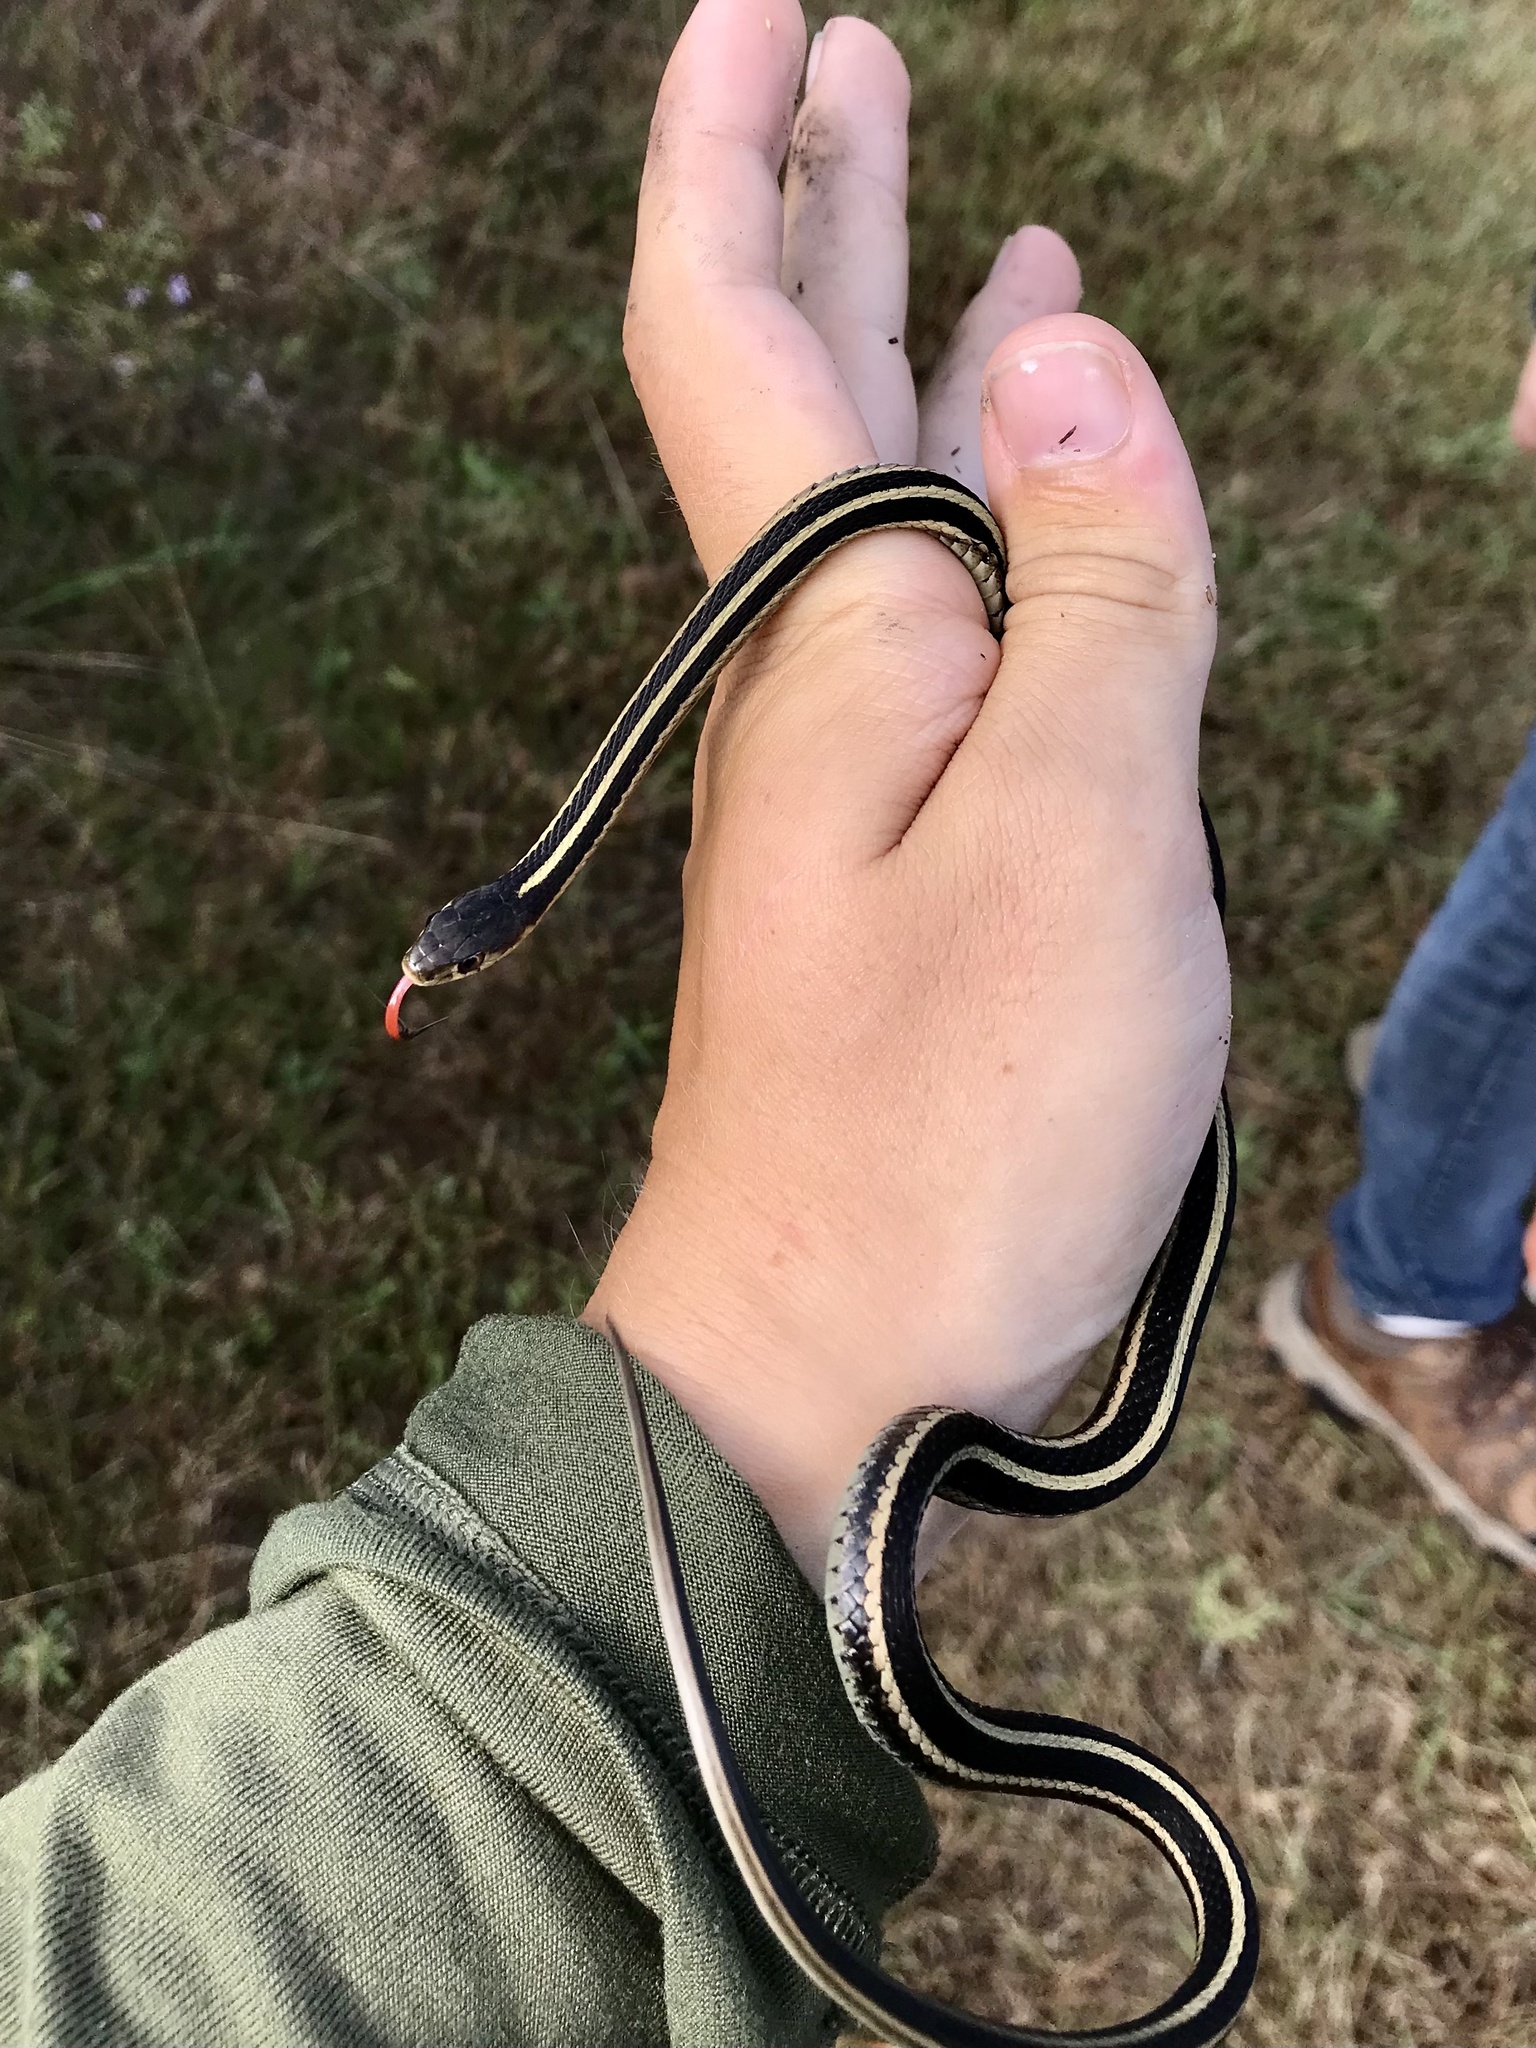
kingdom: Animalia
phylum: Chordata
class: Squamata
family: Colubridae
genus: Thamnophis
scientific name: Thamnophis sirtalis
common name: Common garter snake
